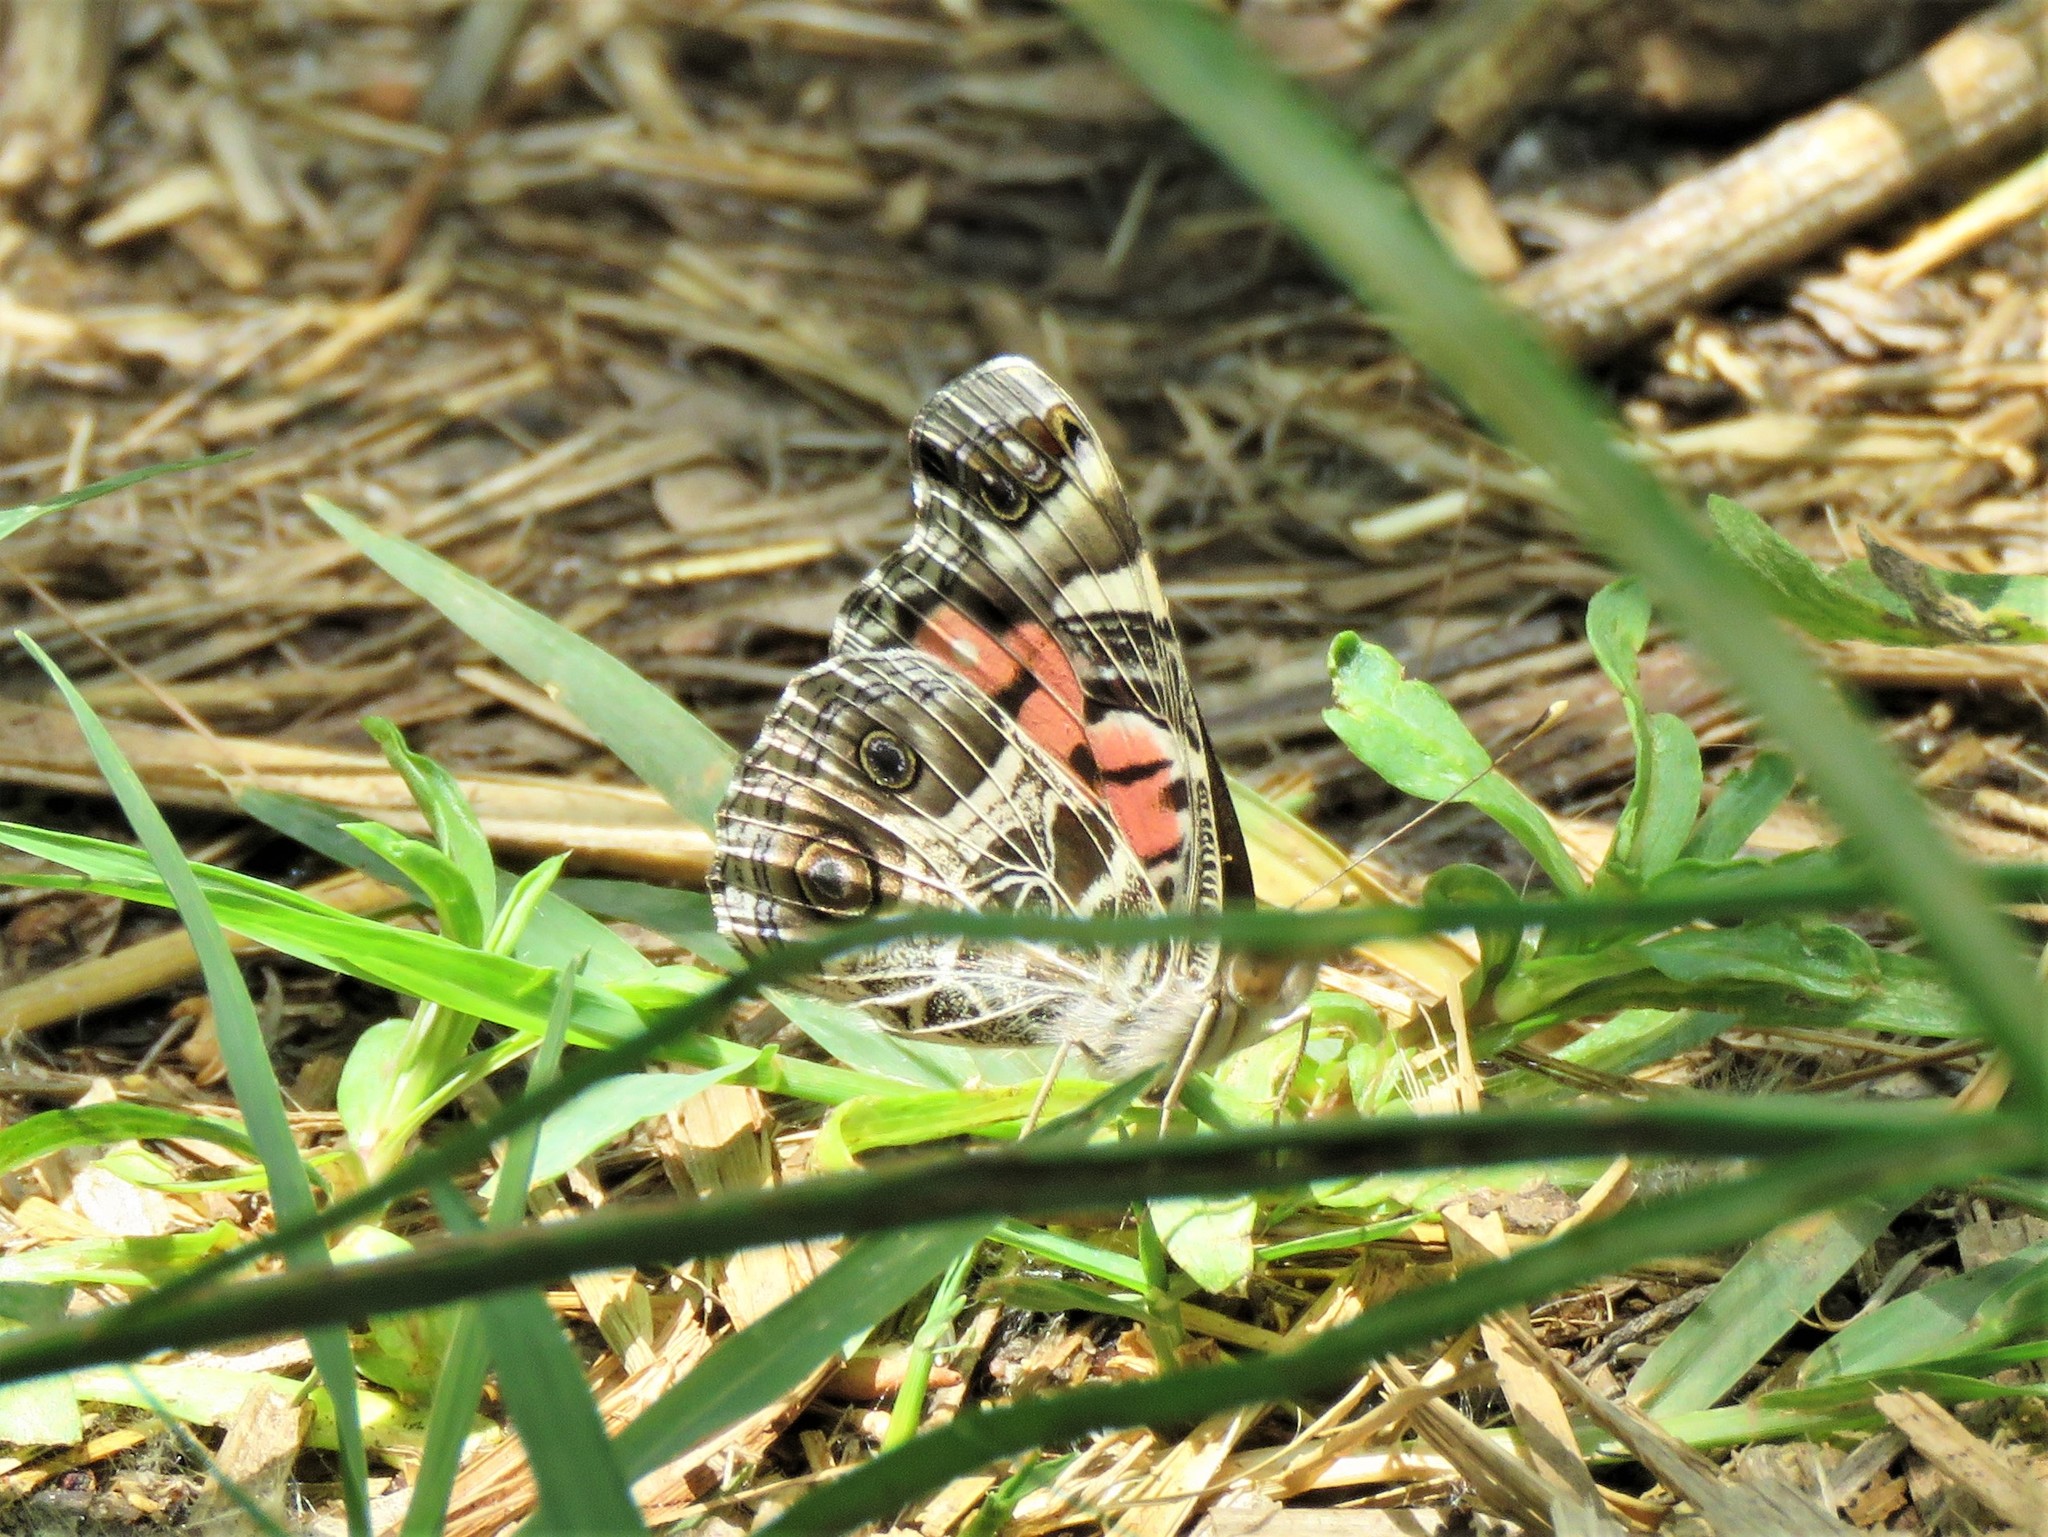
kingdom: Animalia
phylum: Arthropoda
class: Insecta
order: Lepidoptera
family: Nymphalidae
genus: Vanessa
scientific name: Vanessa virginiensis
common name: American lady
